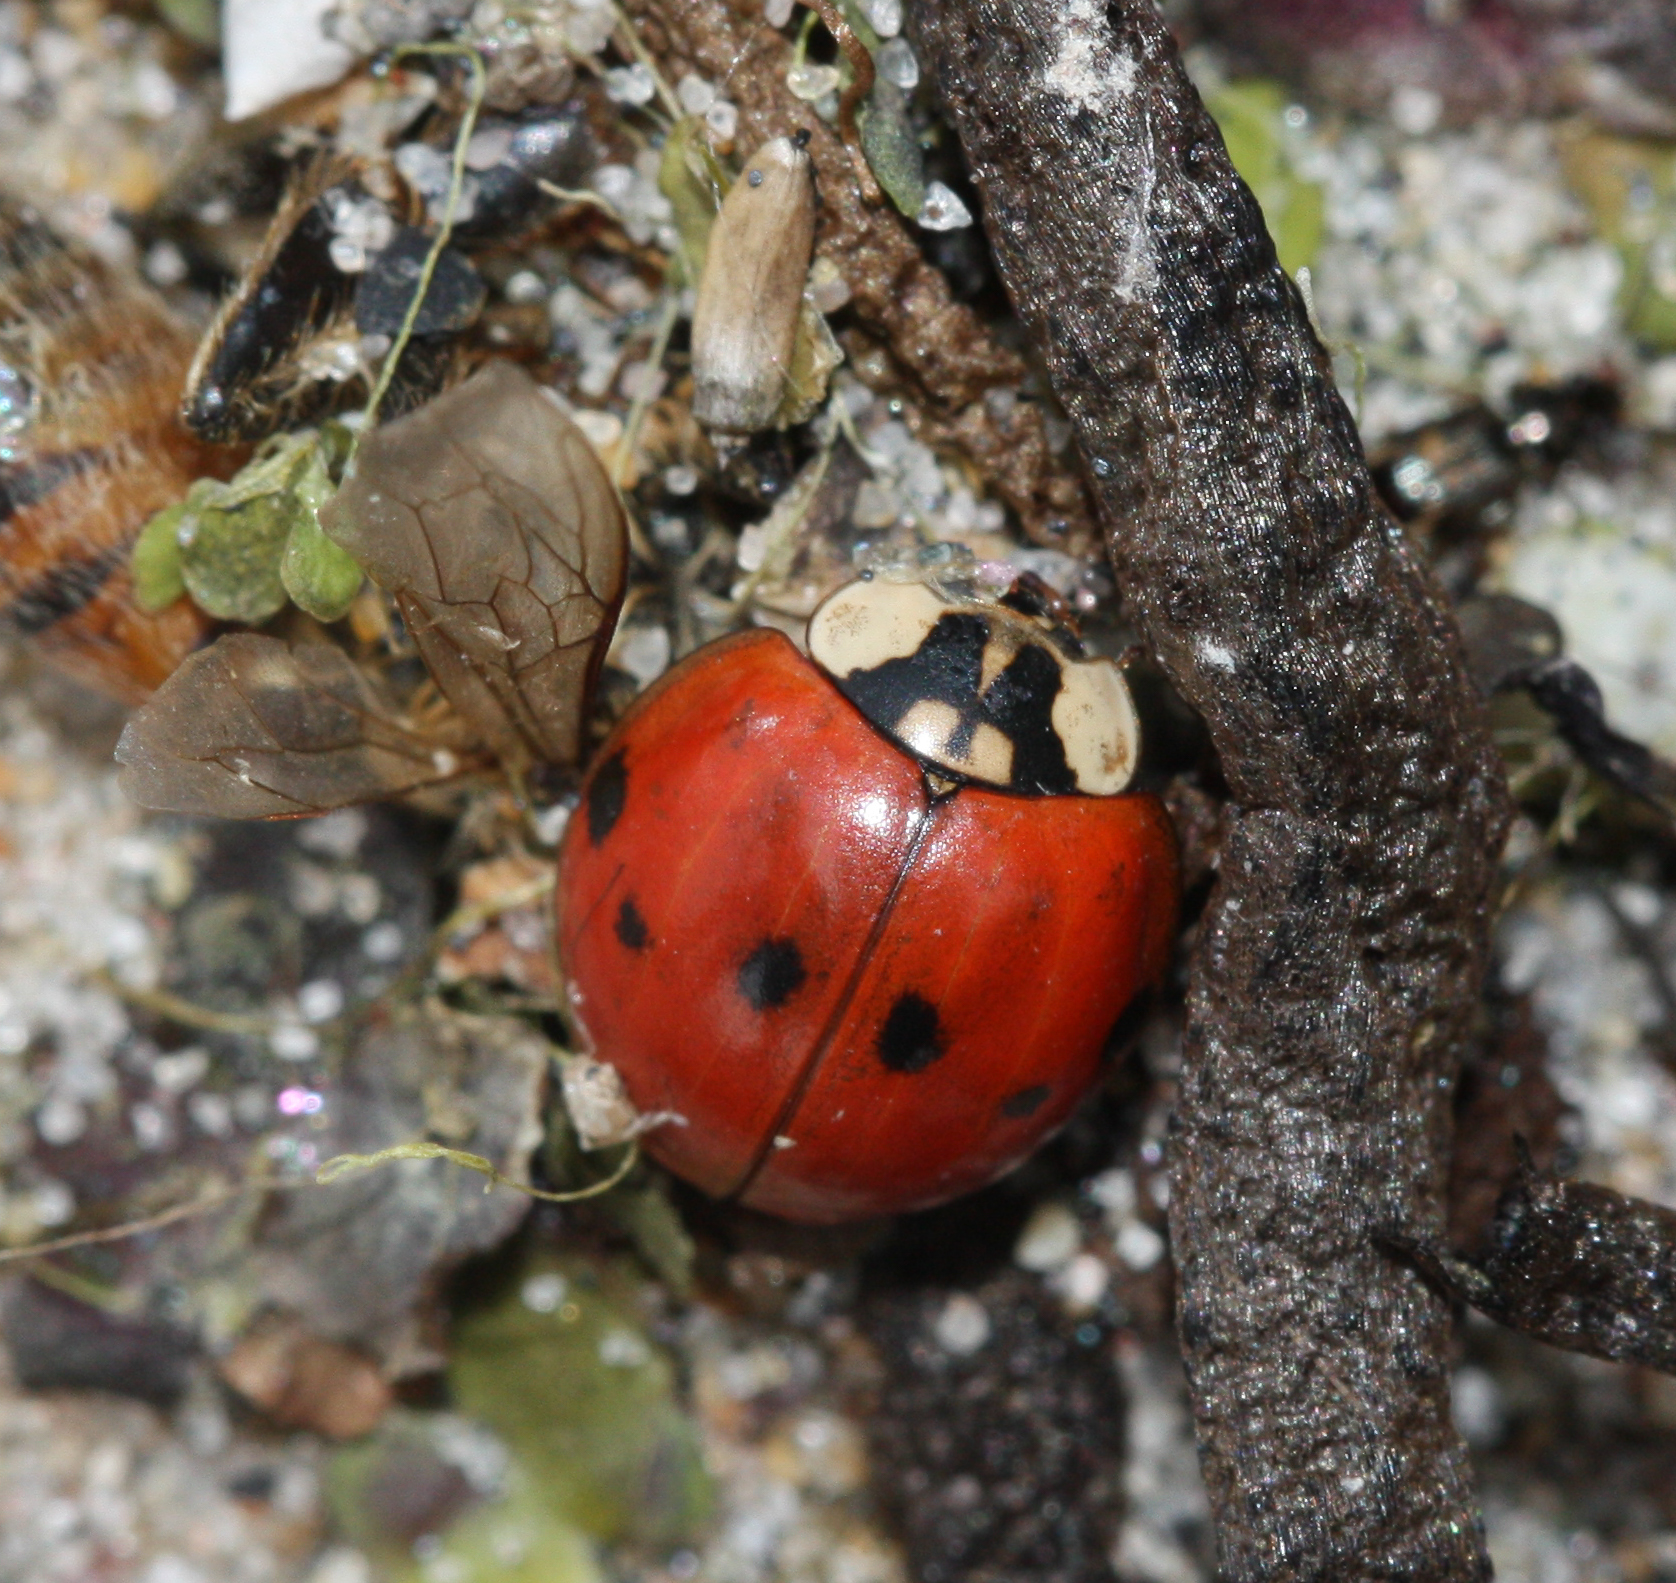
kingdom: Animalia
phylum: Arthropoda
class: Insecta
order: Coleoptera
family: Coccinellidae
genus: Harmonia
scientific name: Harmonia axyridis
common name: Harlequin ladybird
